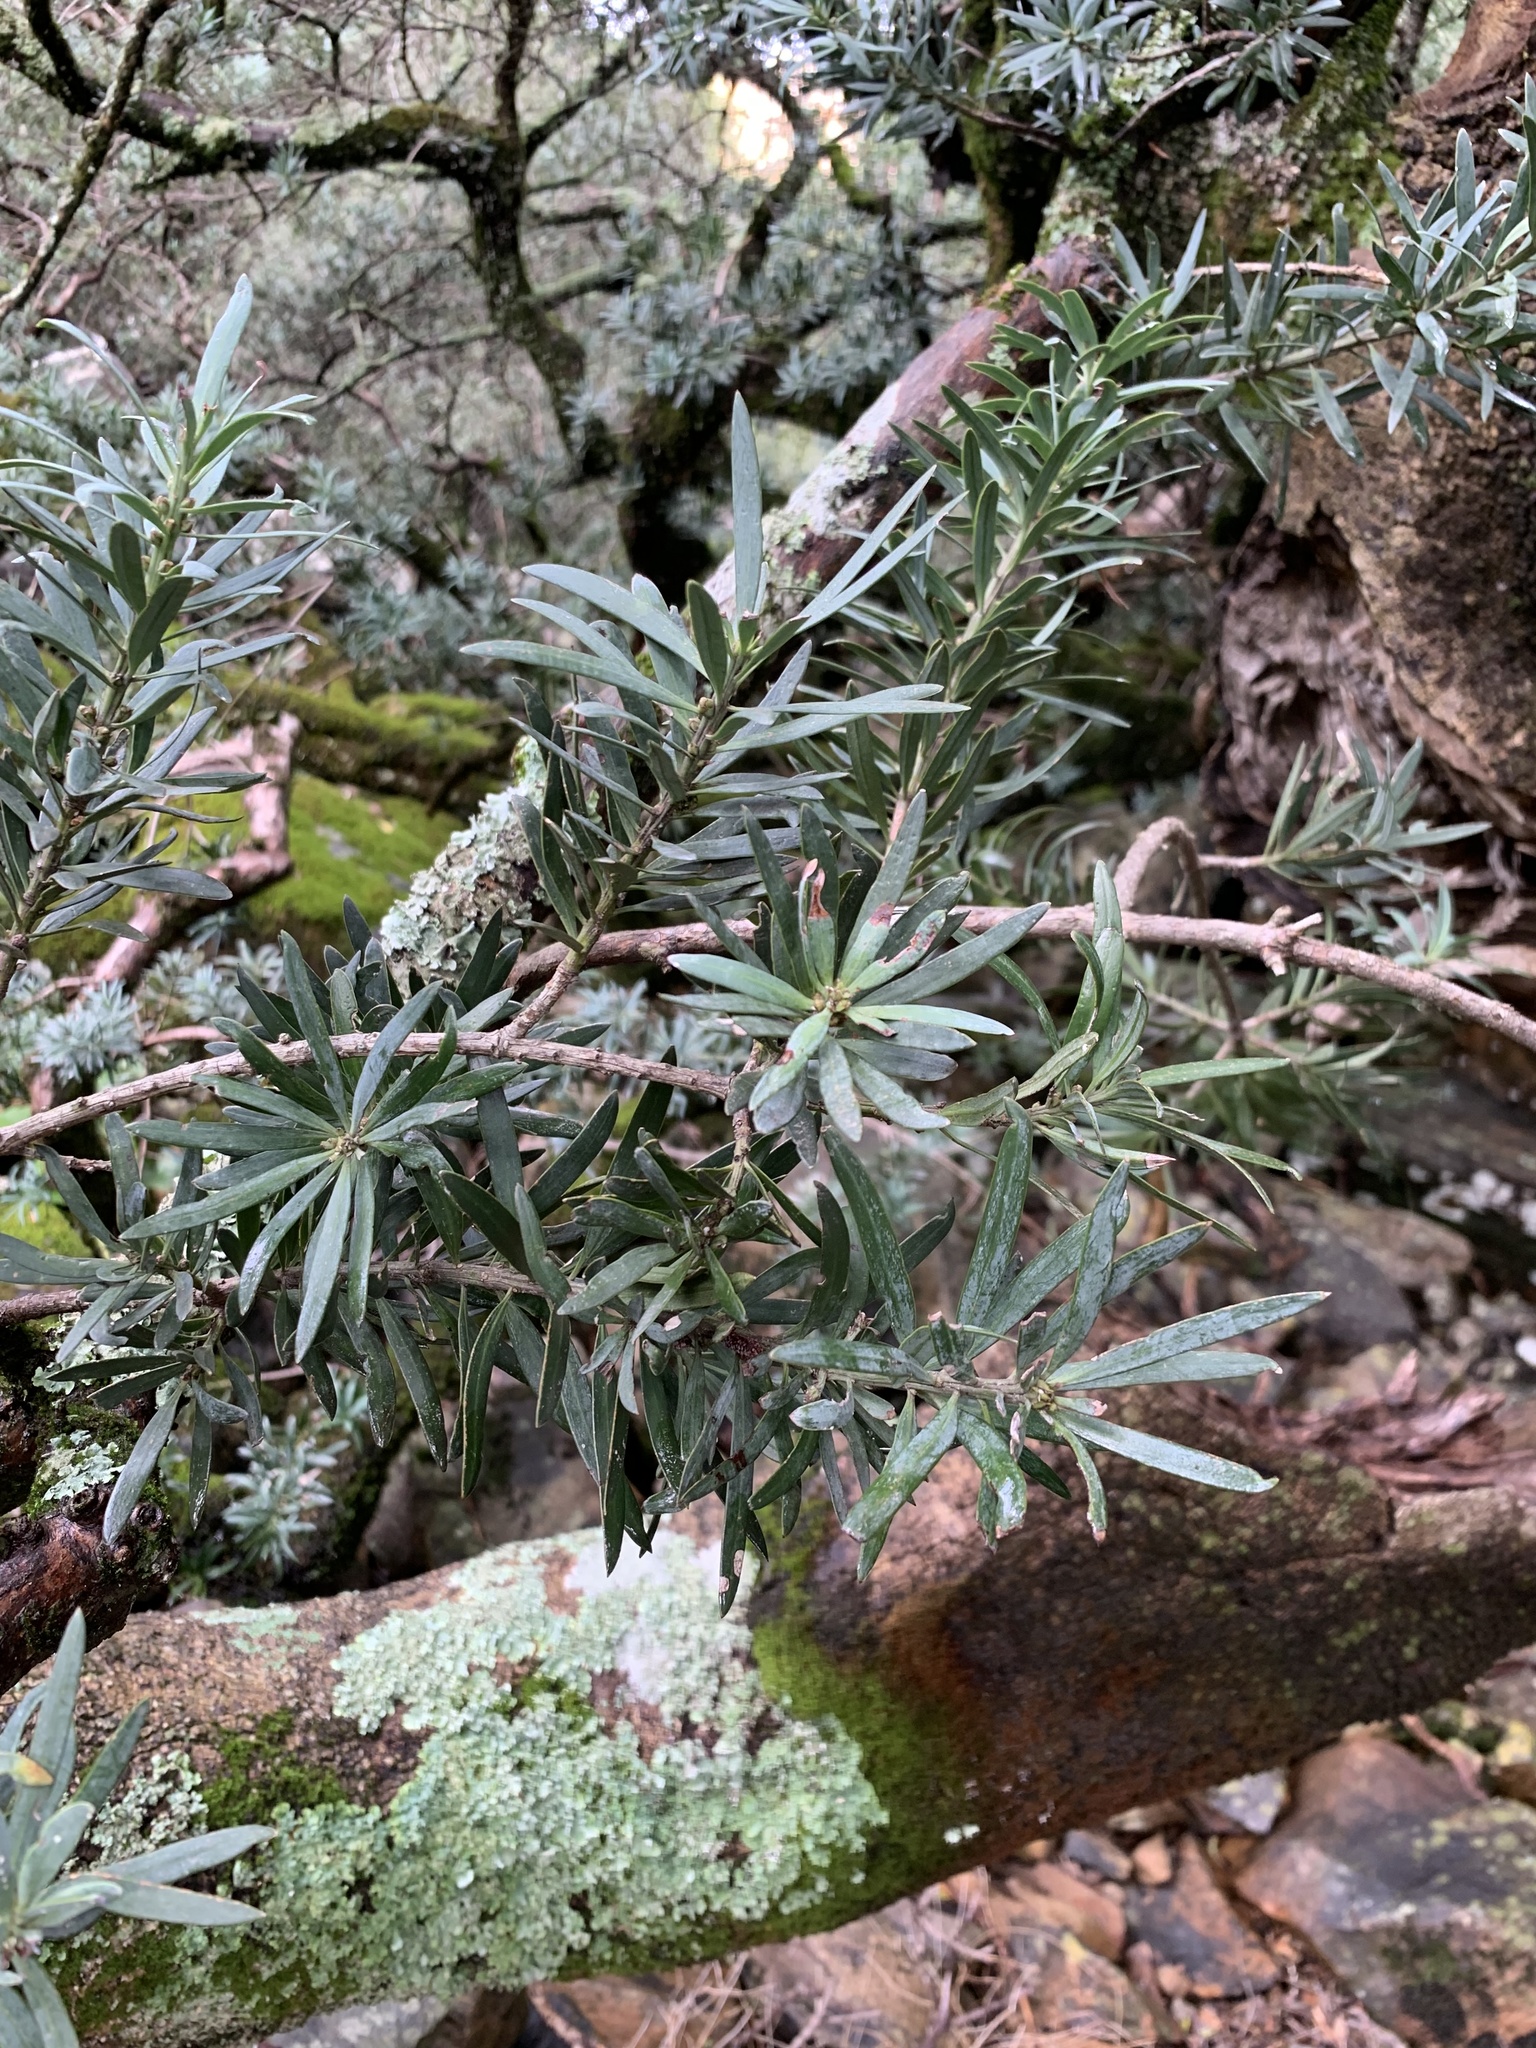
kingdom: Plantae
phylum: Tracheophyta
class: Pinopsida
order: Pinales
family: Podocarpaceae
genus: Podocarpus
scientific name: Podocarpus latifolius
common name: True yellowwood
